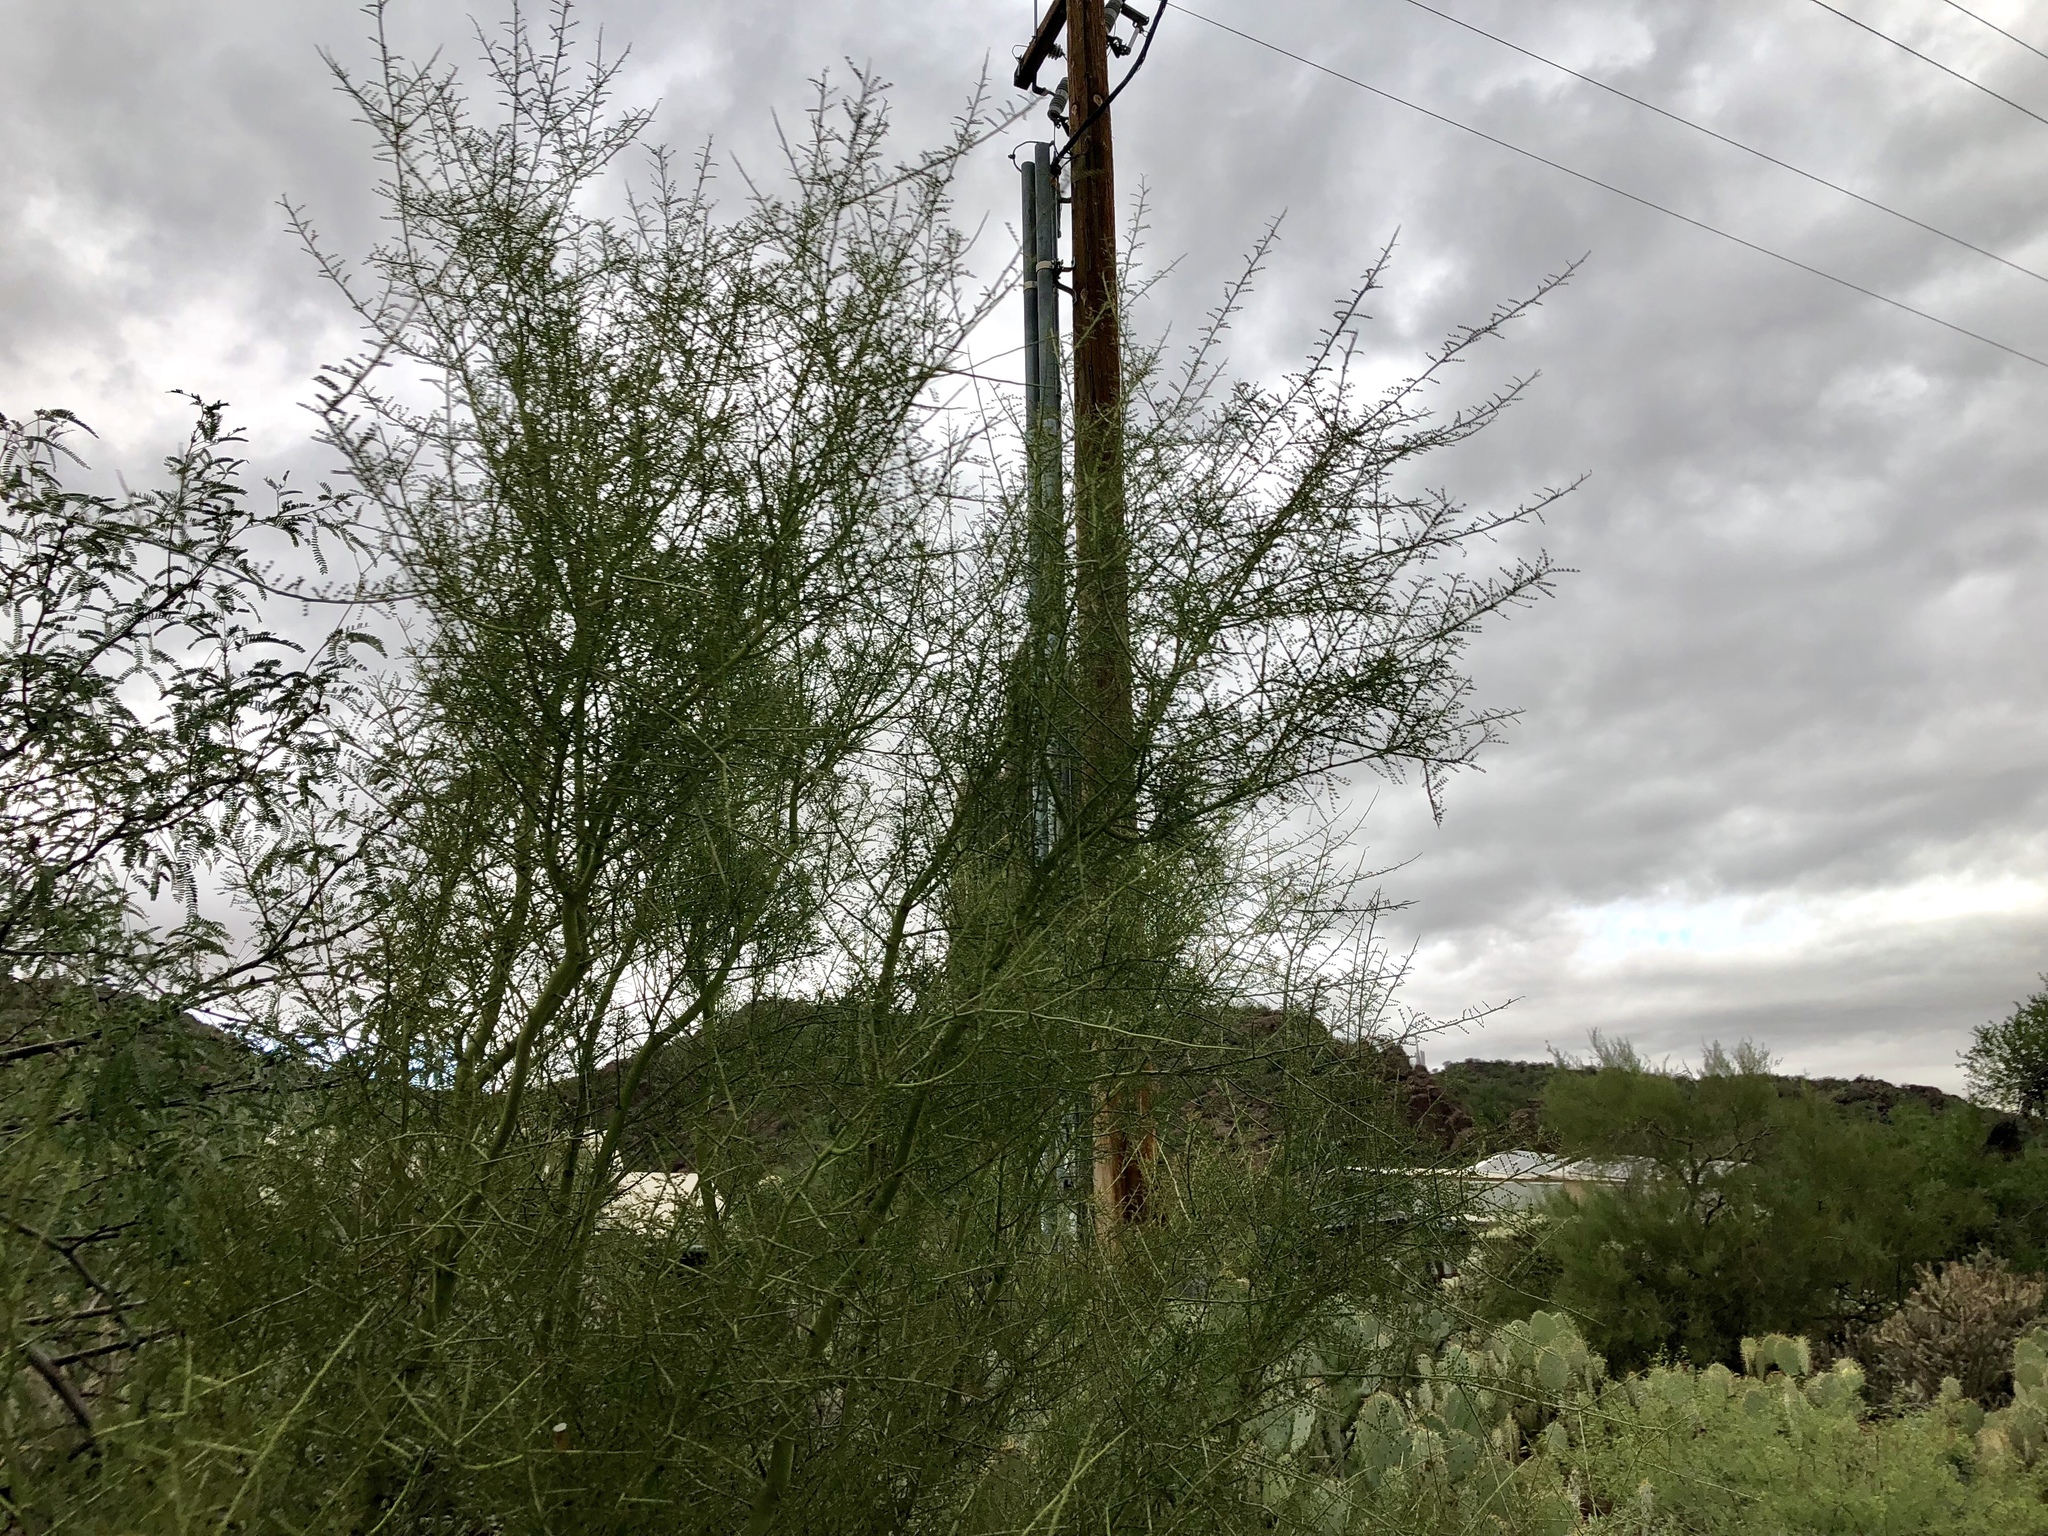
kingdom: Plantae
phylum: Tracheophyta
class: Magnoliopsida
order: Fabales
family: Fabaceae
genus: Parkinsonia
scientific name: Parkinsonia microphylla
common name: Yellow paloverde
